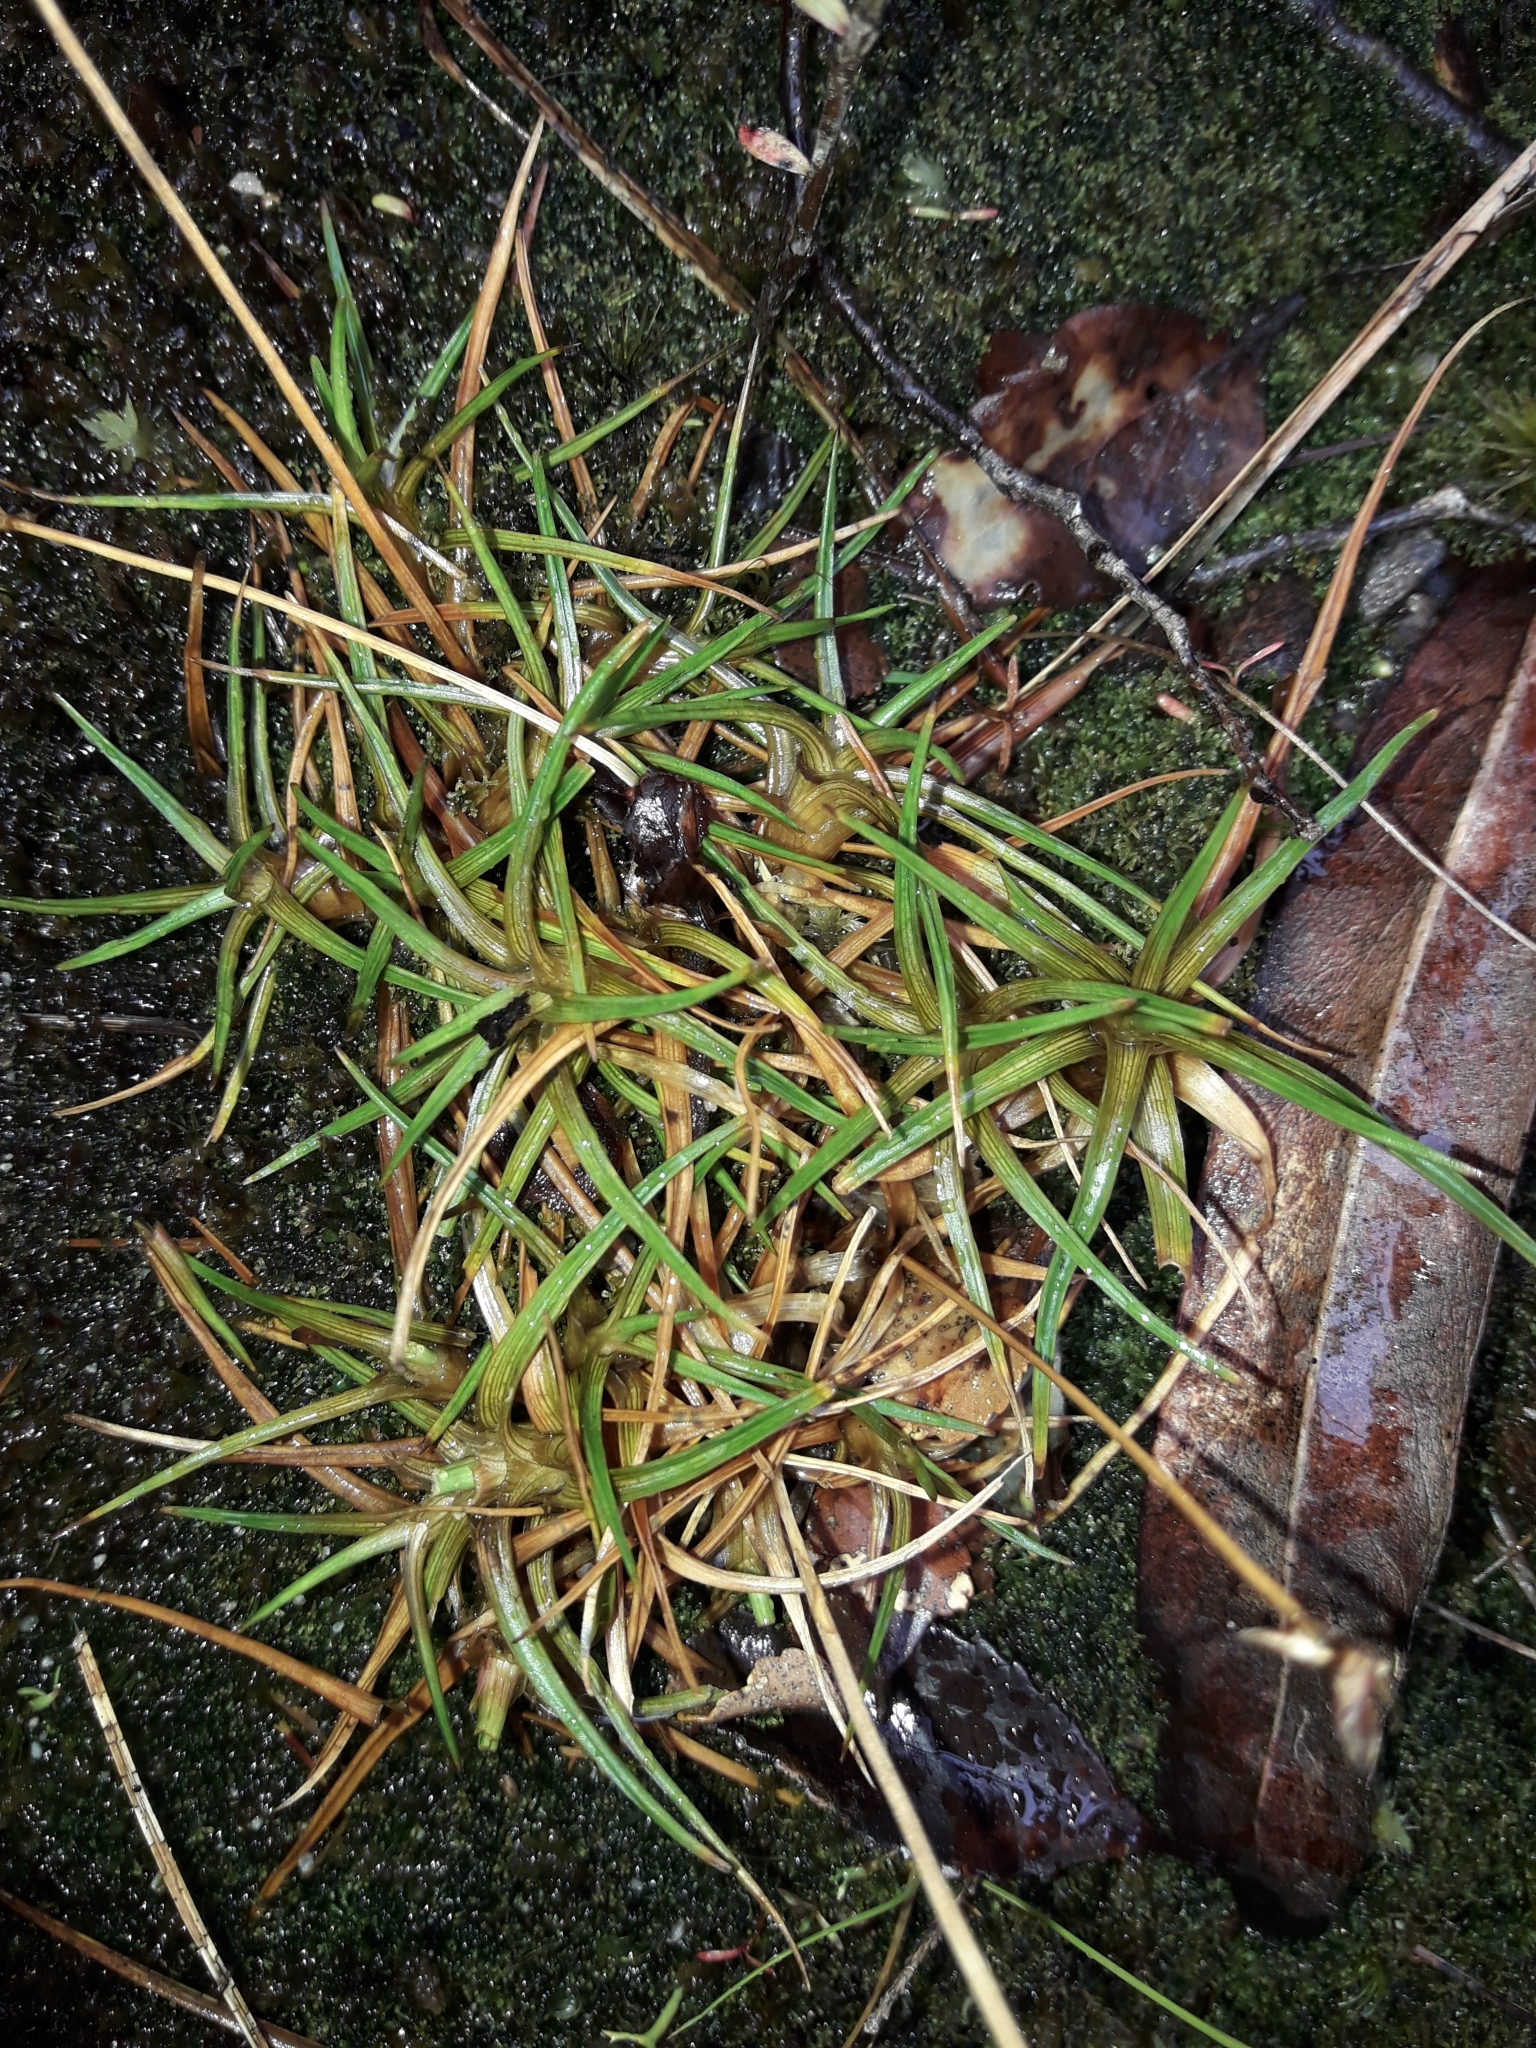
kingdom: Plantae
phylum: Tracheophyta
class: Liliopsida
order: Poales
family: Juncaceae
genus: Juncus
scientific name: Juncus antarcticus
